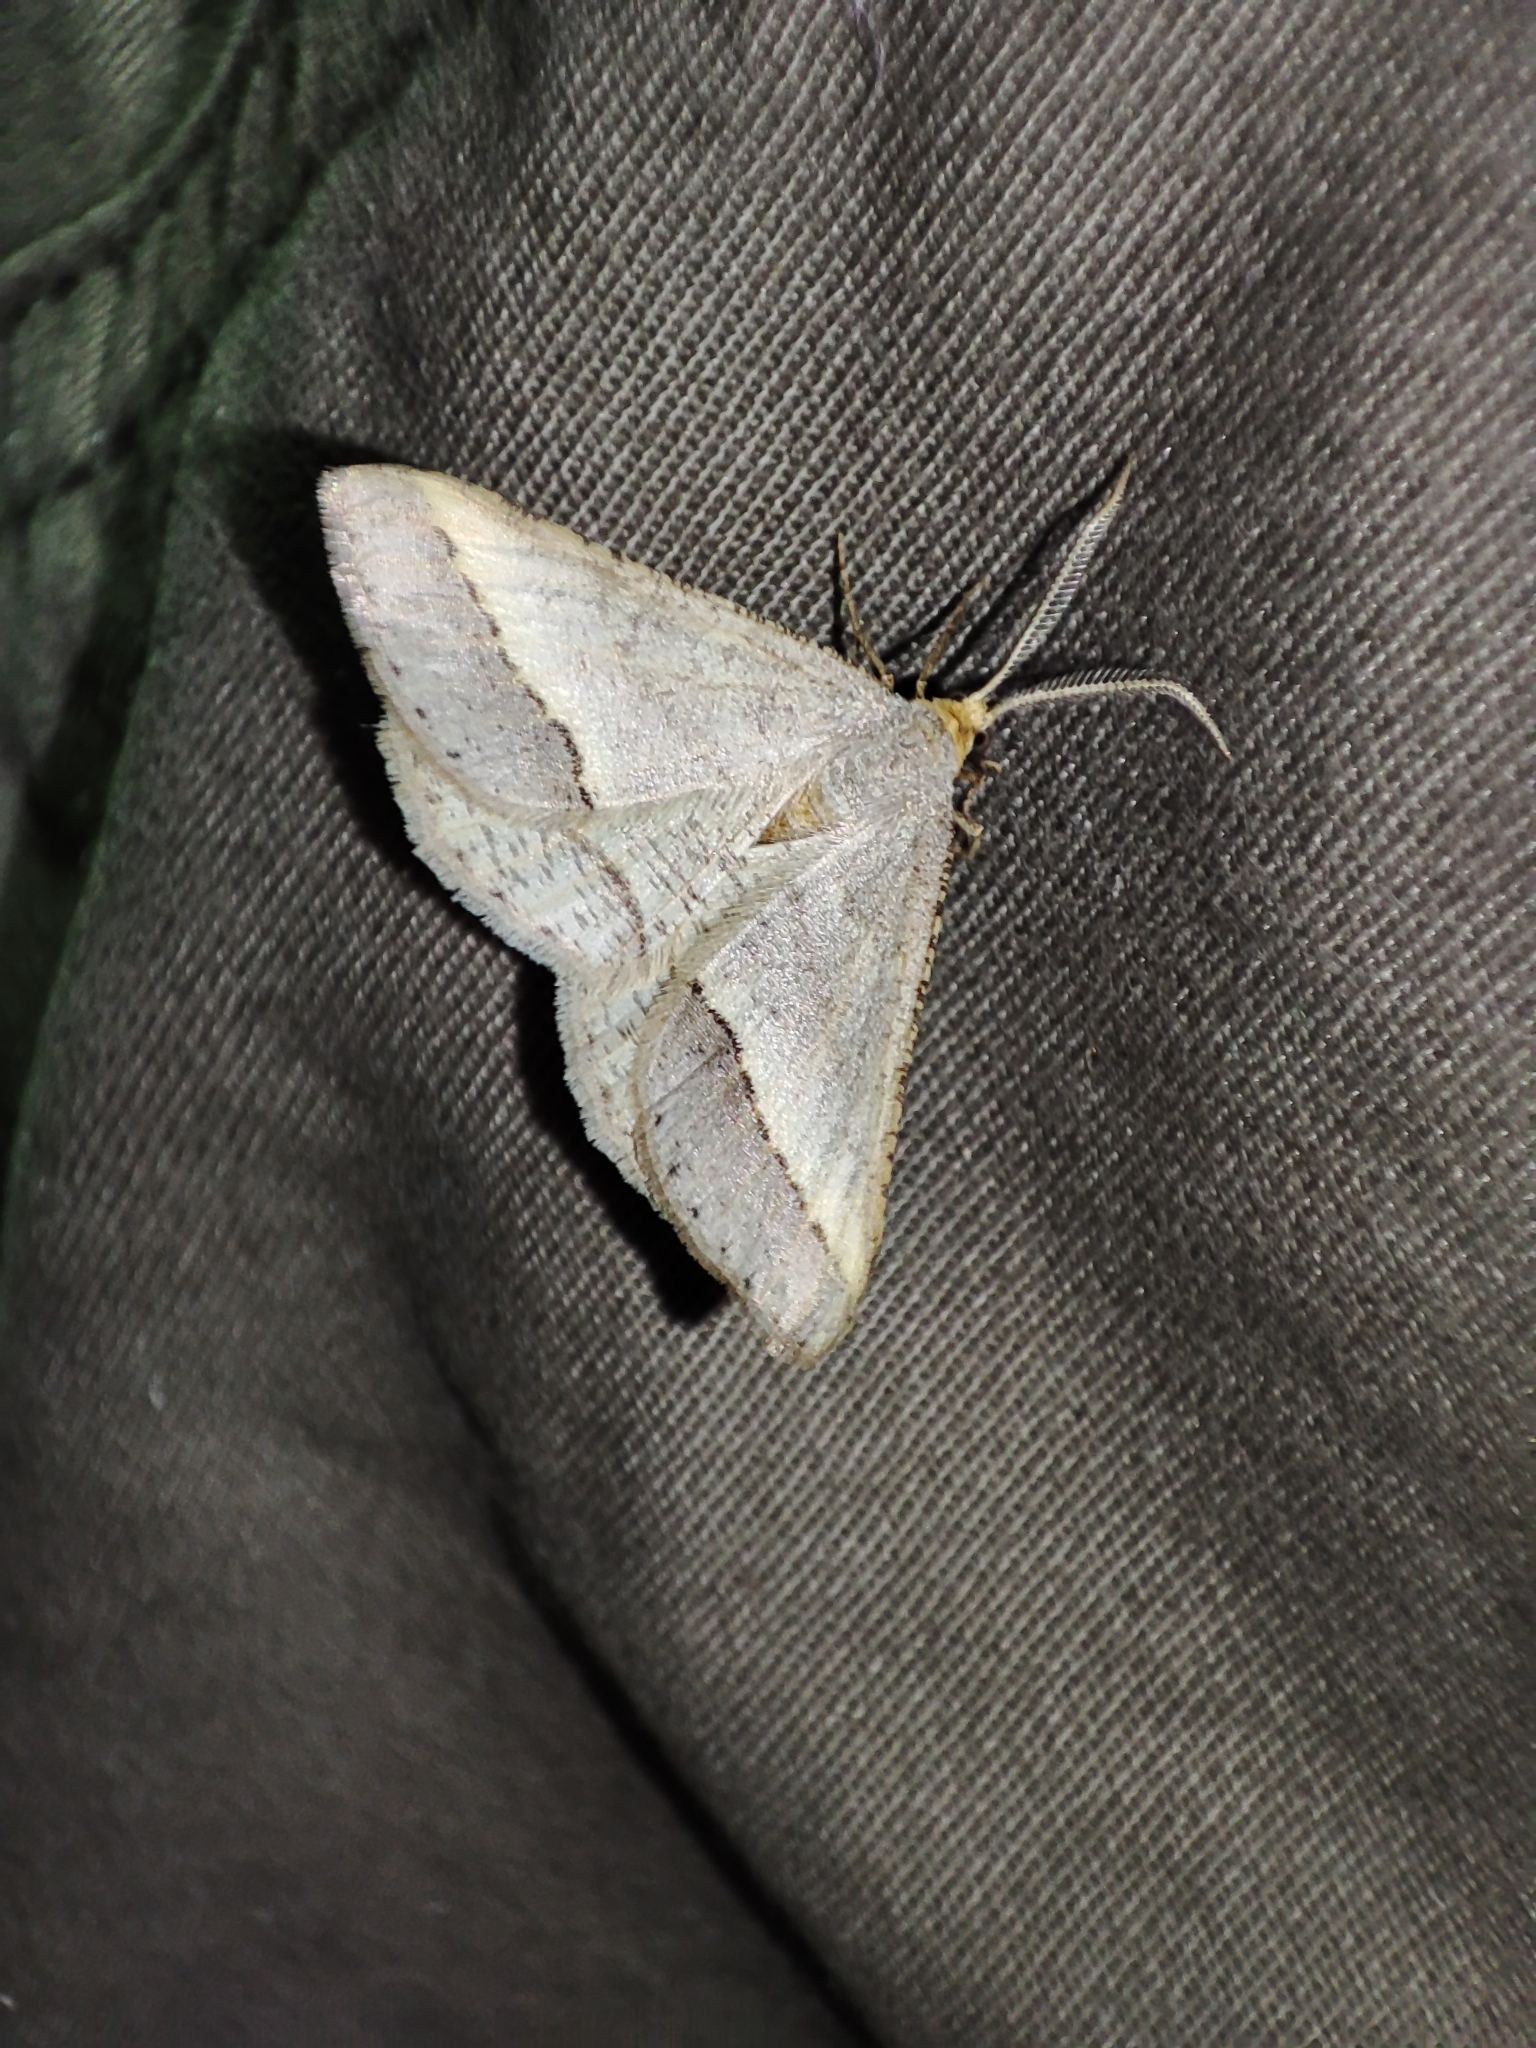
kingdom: Animalia
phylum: Arthropoda
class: Insecta
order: Lepidoptera
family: Geometridae
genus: Tephrina
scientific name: Tephrina arenacearia
